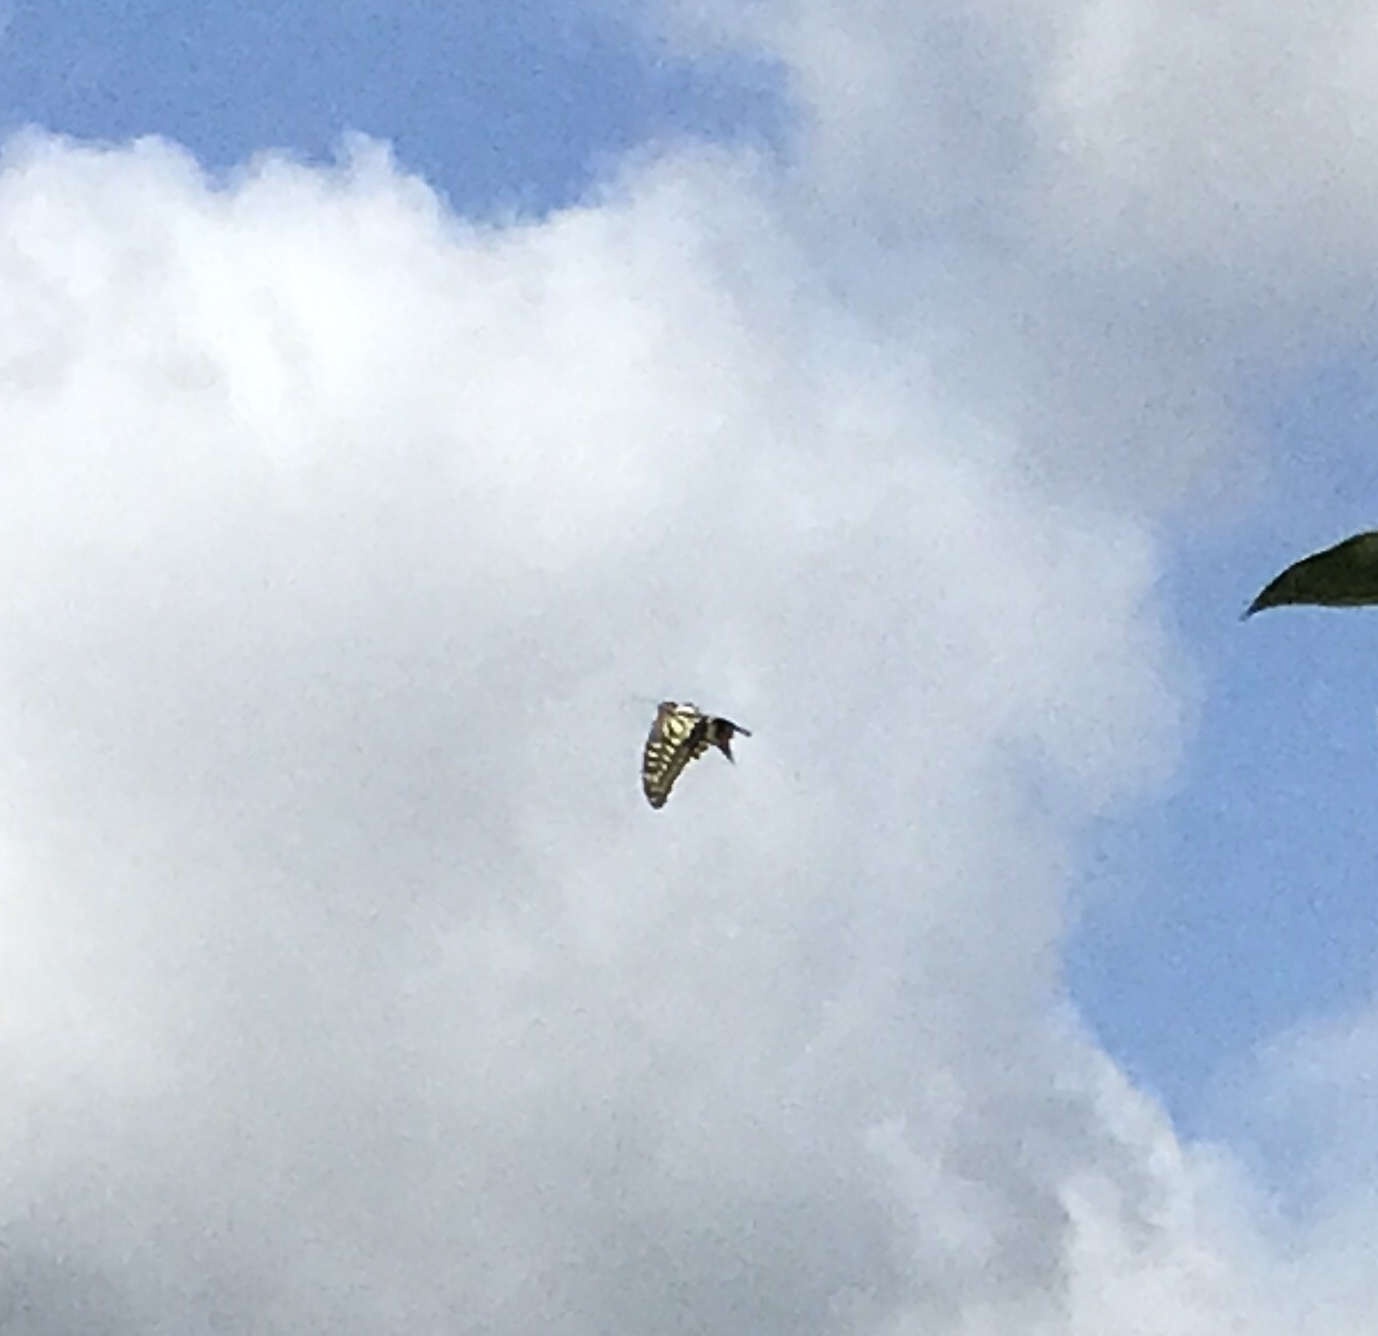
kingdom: Animalia
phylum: Arthropoda
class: Insecta
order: Lepidoptera
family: Papilionidae
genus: Papilio
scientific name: Papilio xuthus
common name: Asian swallowtail
